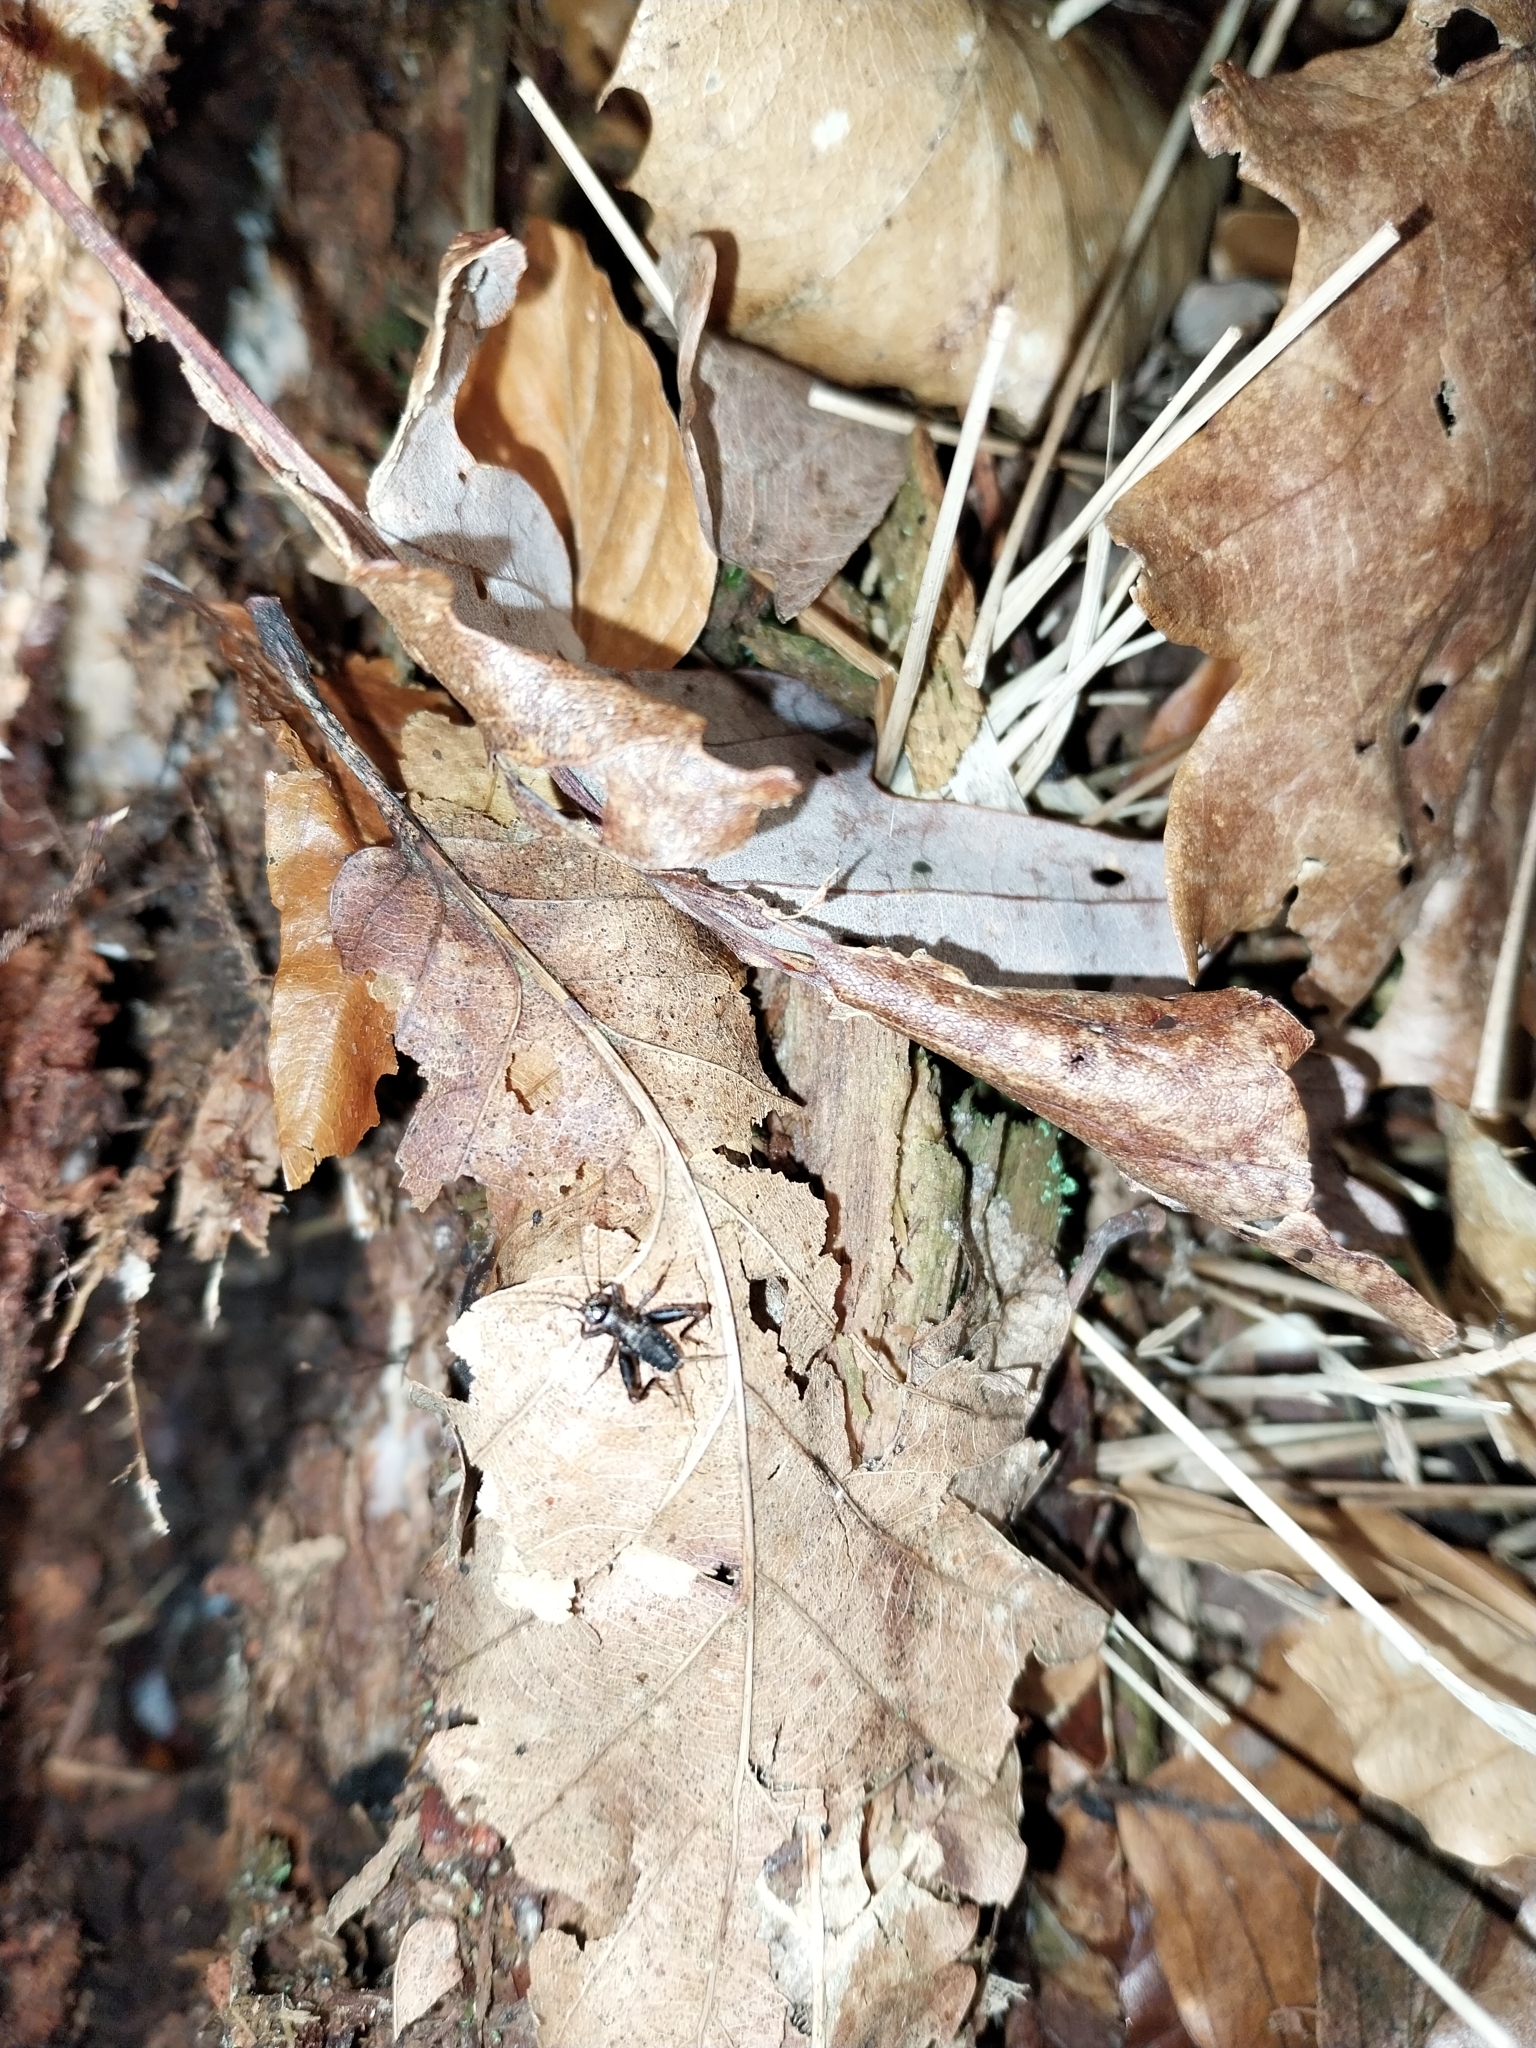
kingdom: Animalia
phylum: Arthropoda
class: Insecta
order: Orthoptera
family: Trigonidiidae
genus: Nemobius
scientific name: Nemobius sylvestris
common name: Wood-cricket
